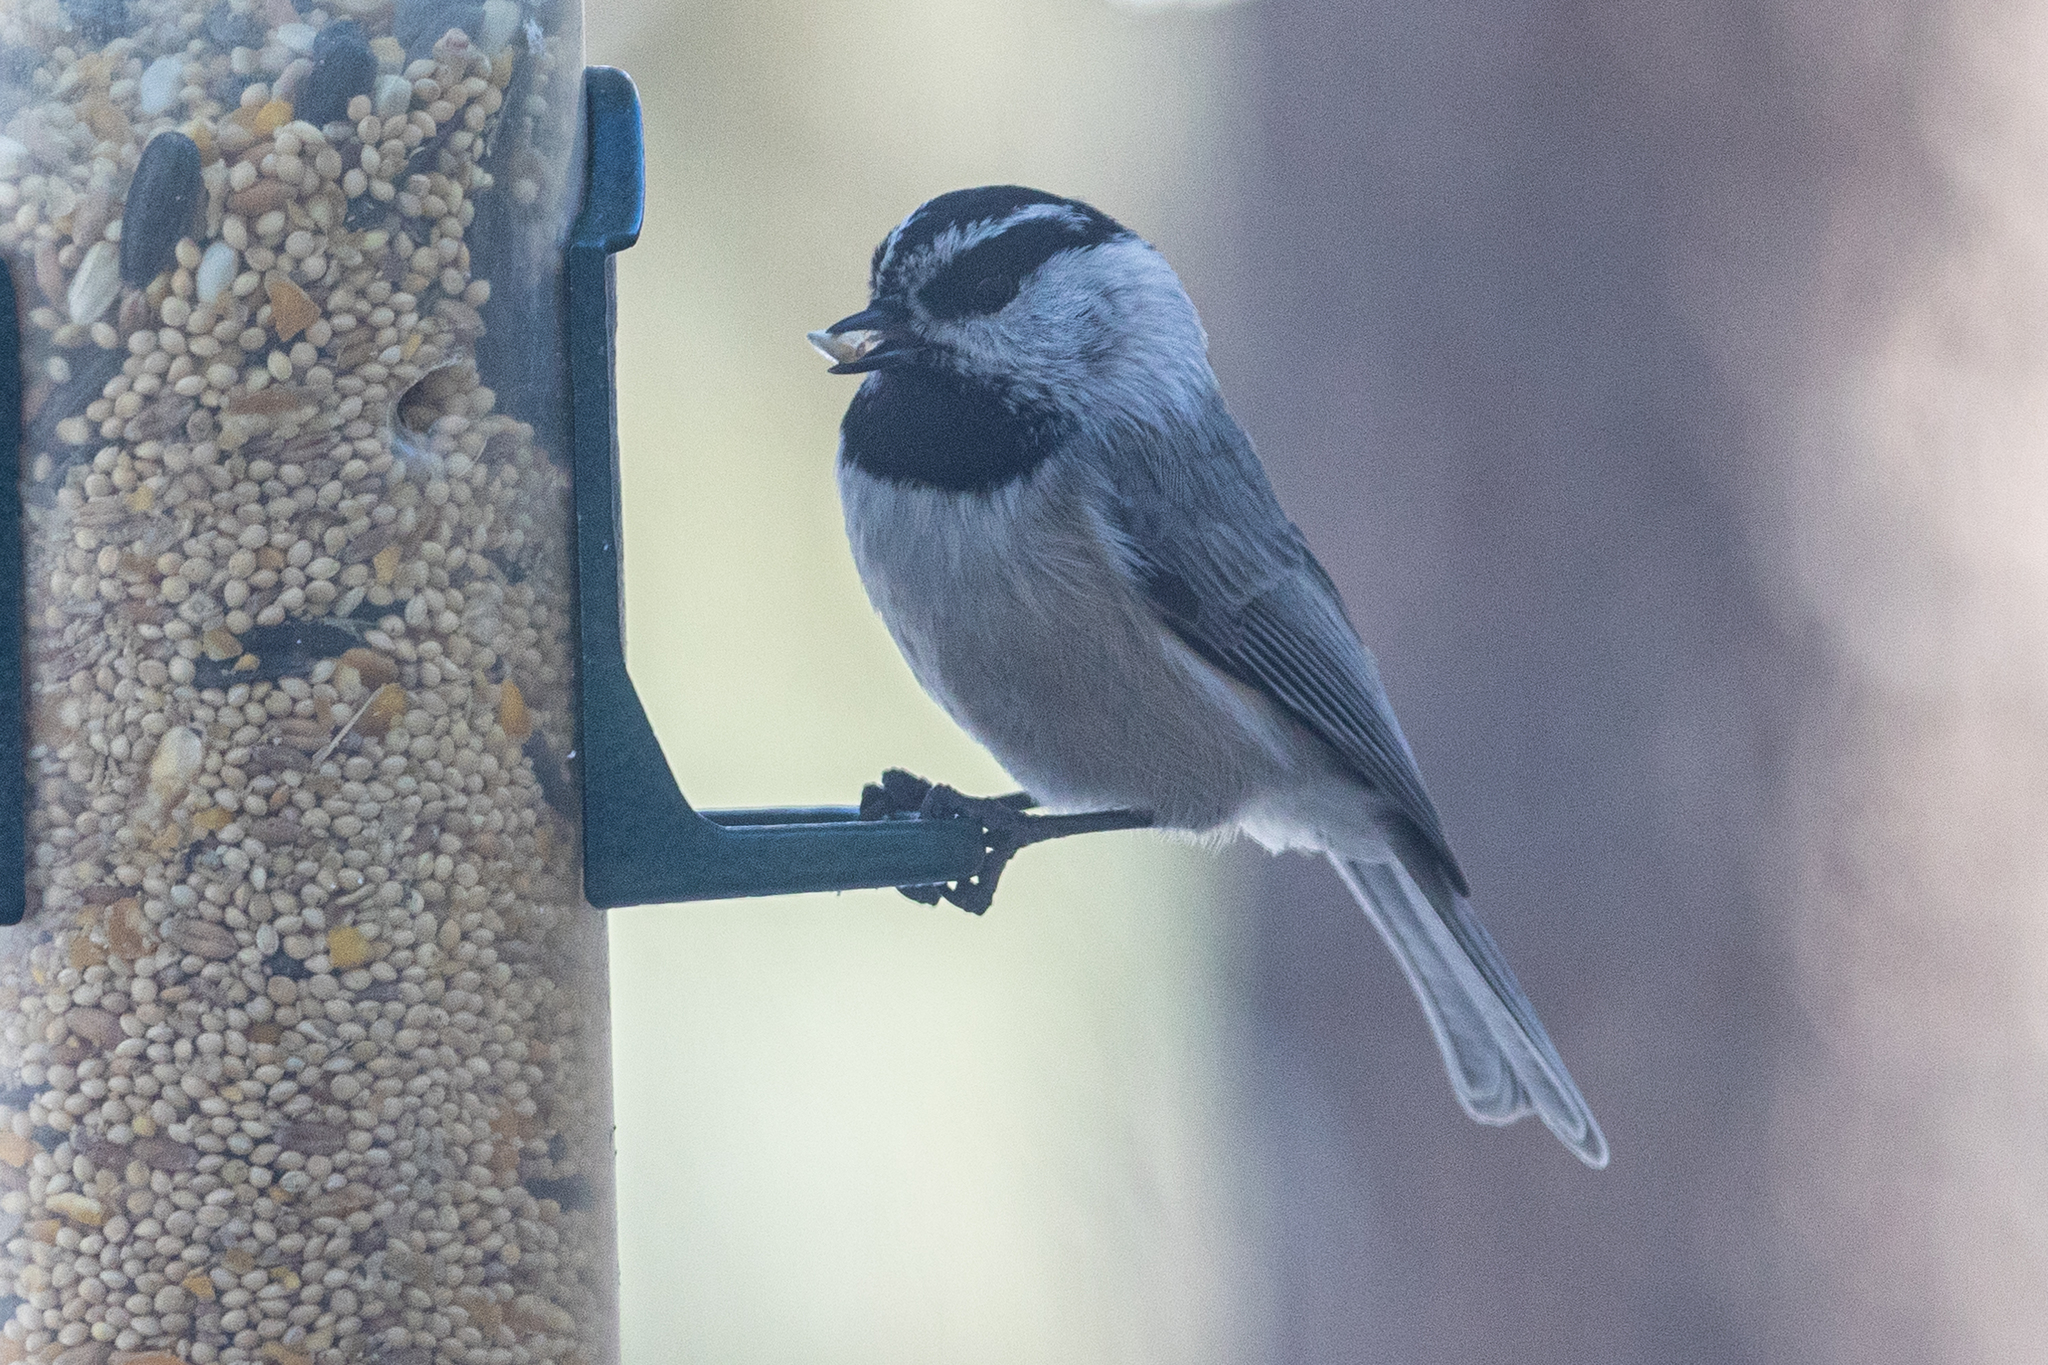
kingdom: Animalia
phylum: Chordata
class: Aves
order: Passeriformes
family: Paridae
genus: Poecile
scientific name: Poecile gambeli
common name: Mountain chickadee
